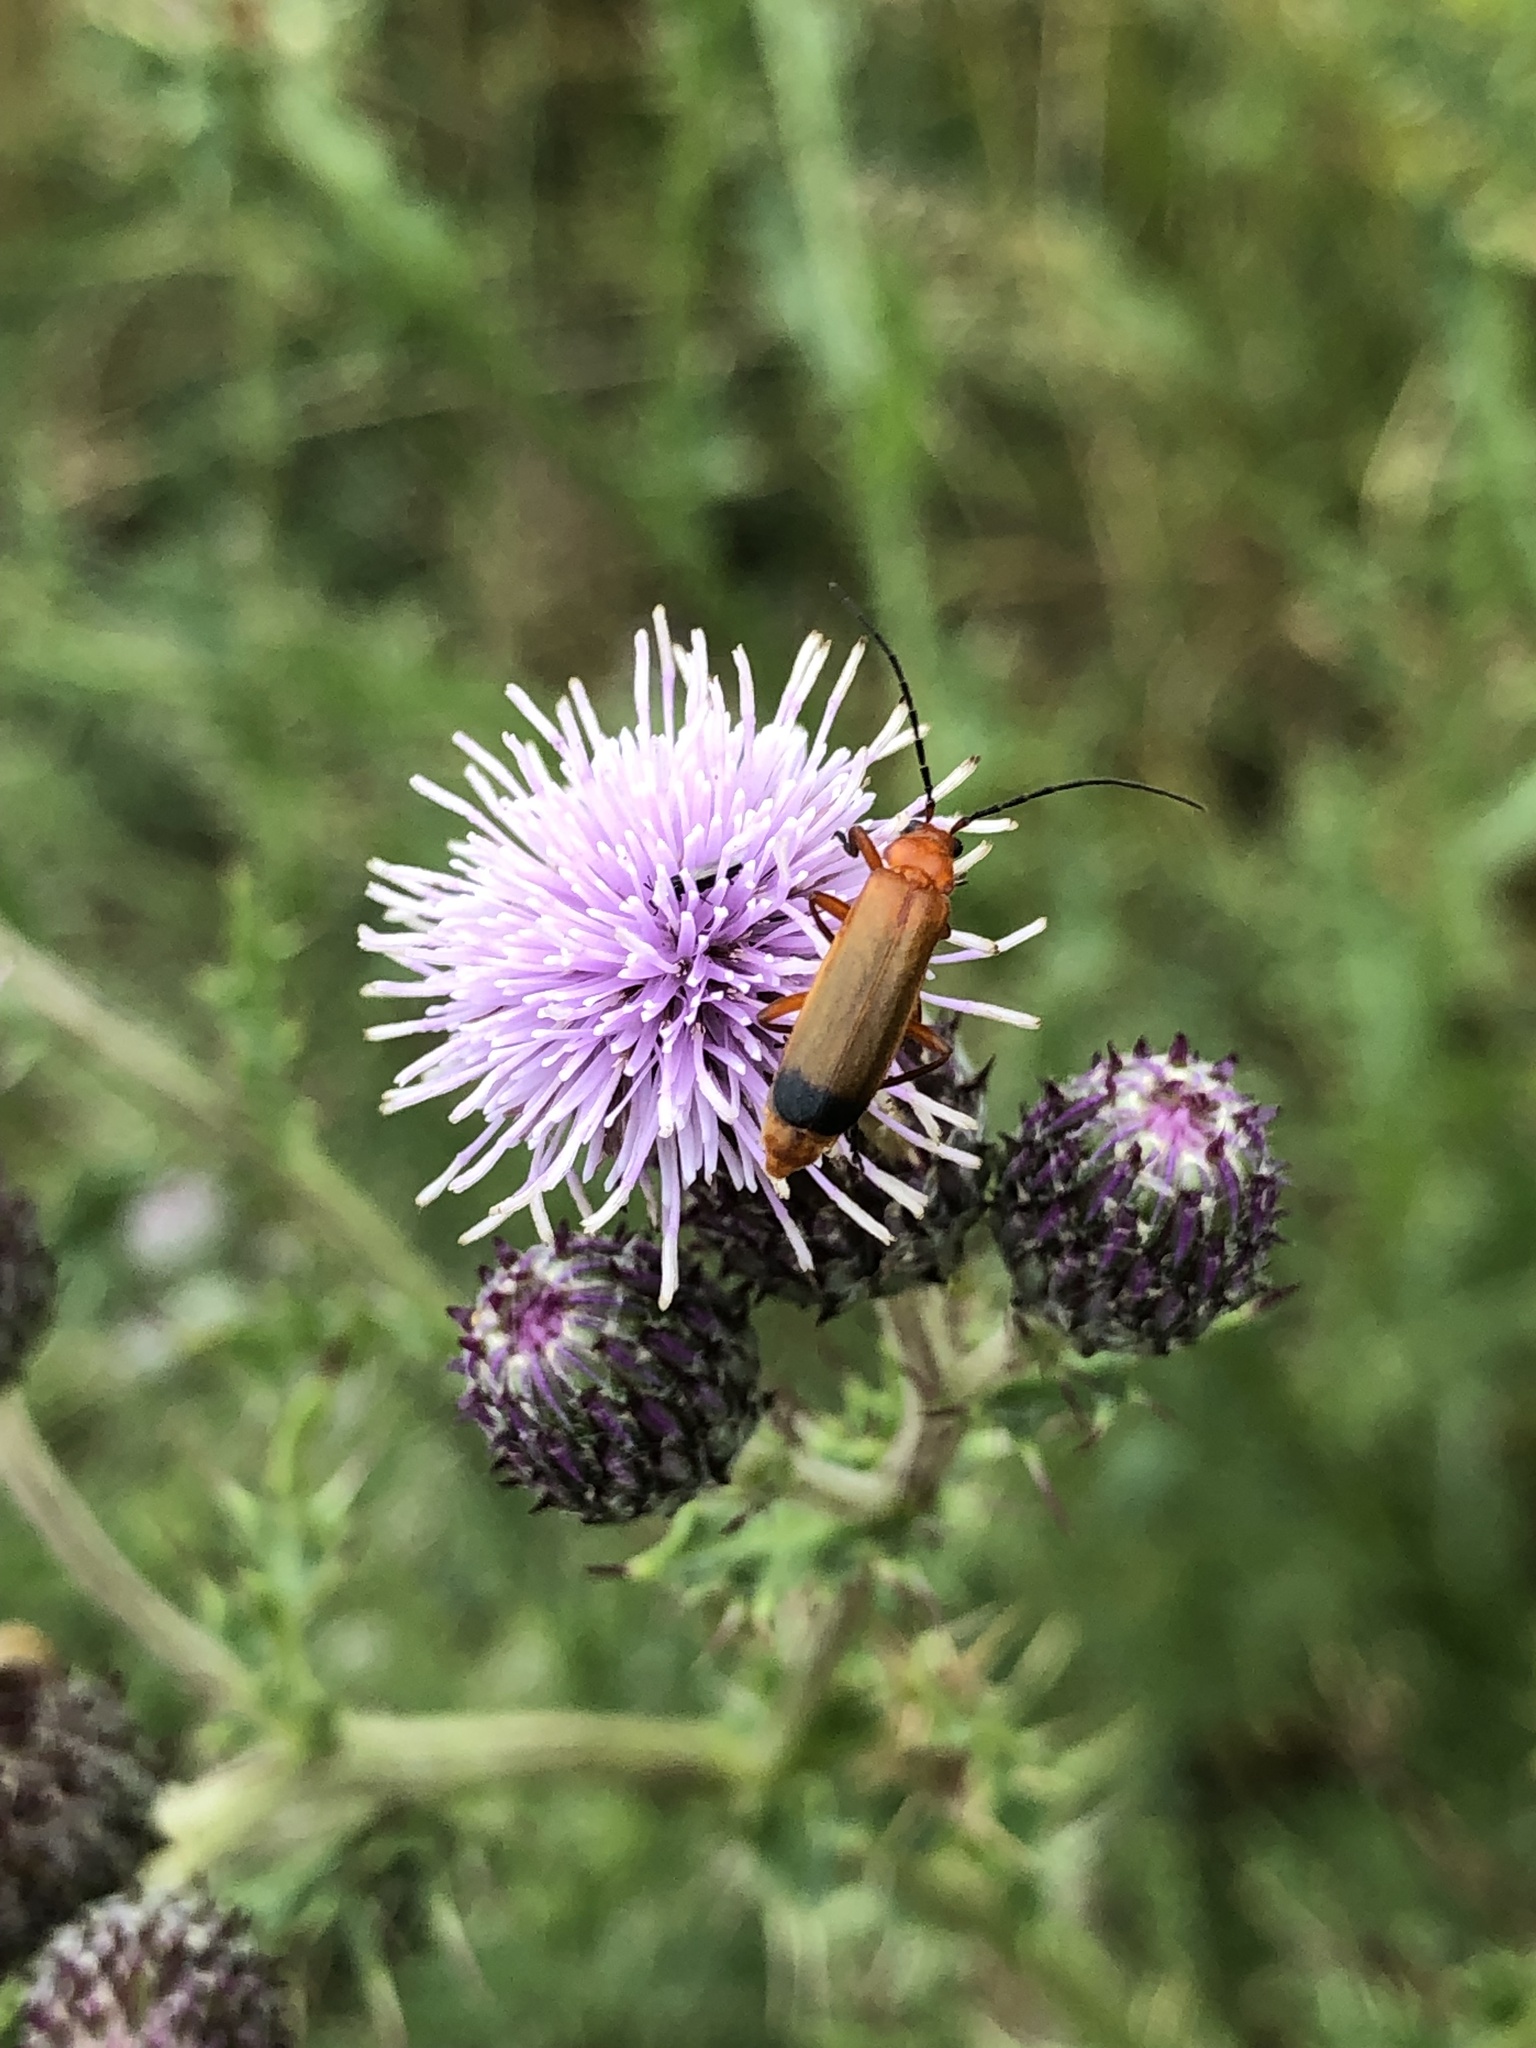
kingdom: Animalia
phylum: Arthropoda
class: Insecta
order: Coleoptera
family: Cantharidae
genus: Rhagonycha
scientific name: Rhagonycha fulva
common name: Common red soldier beetle
